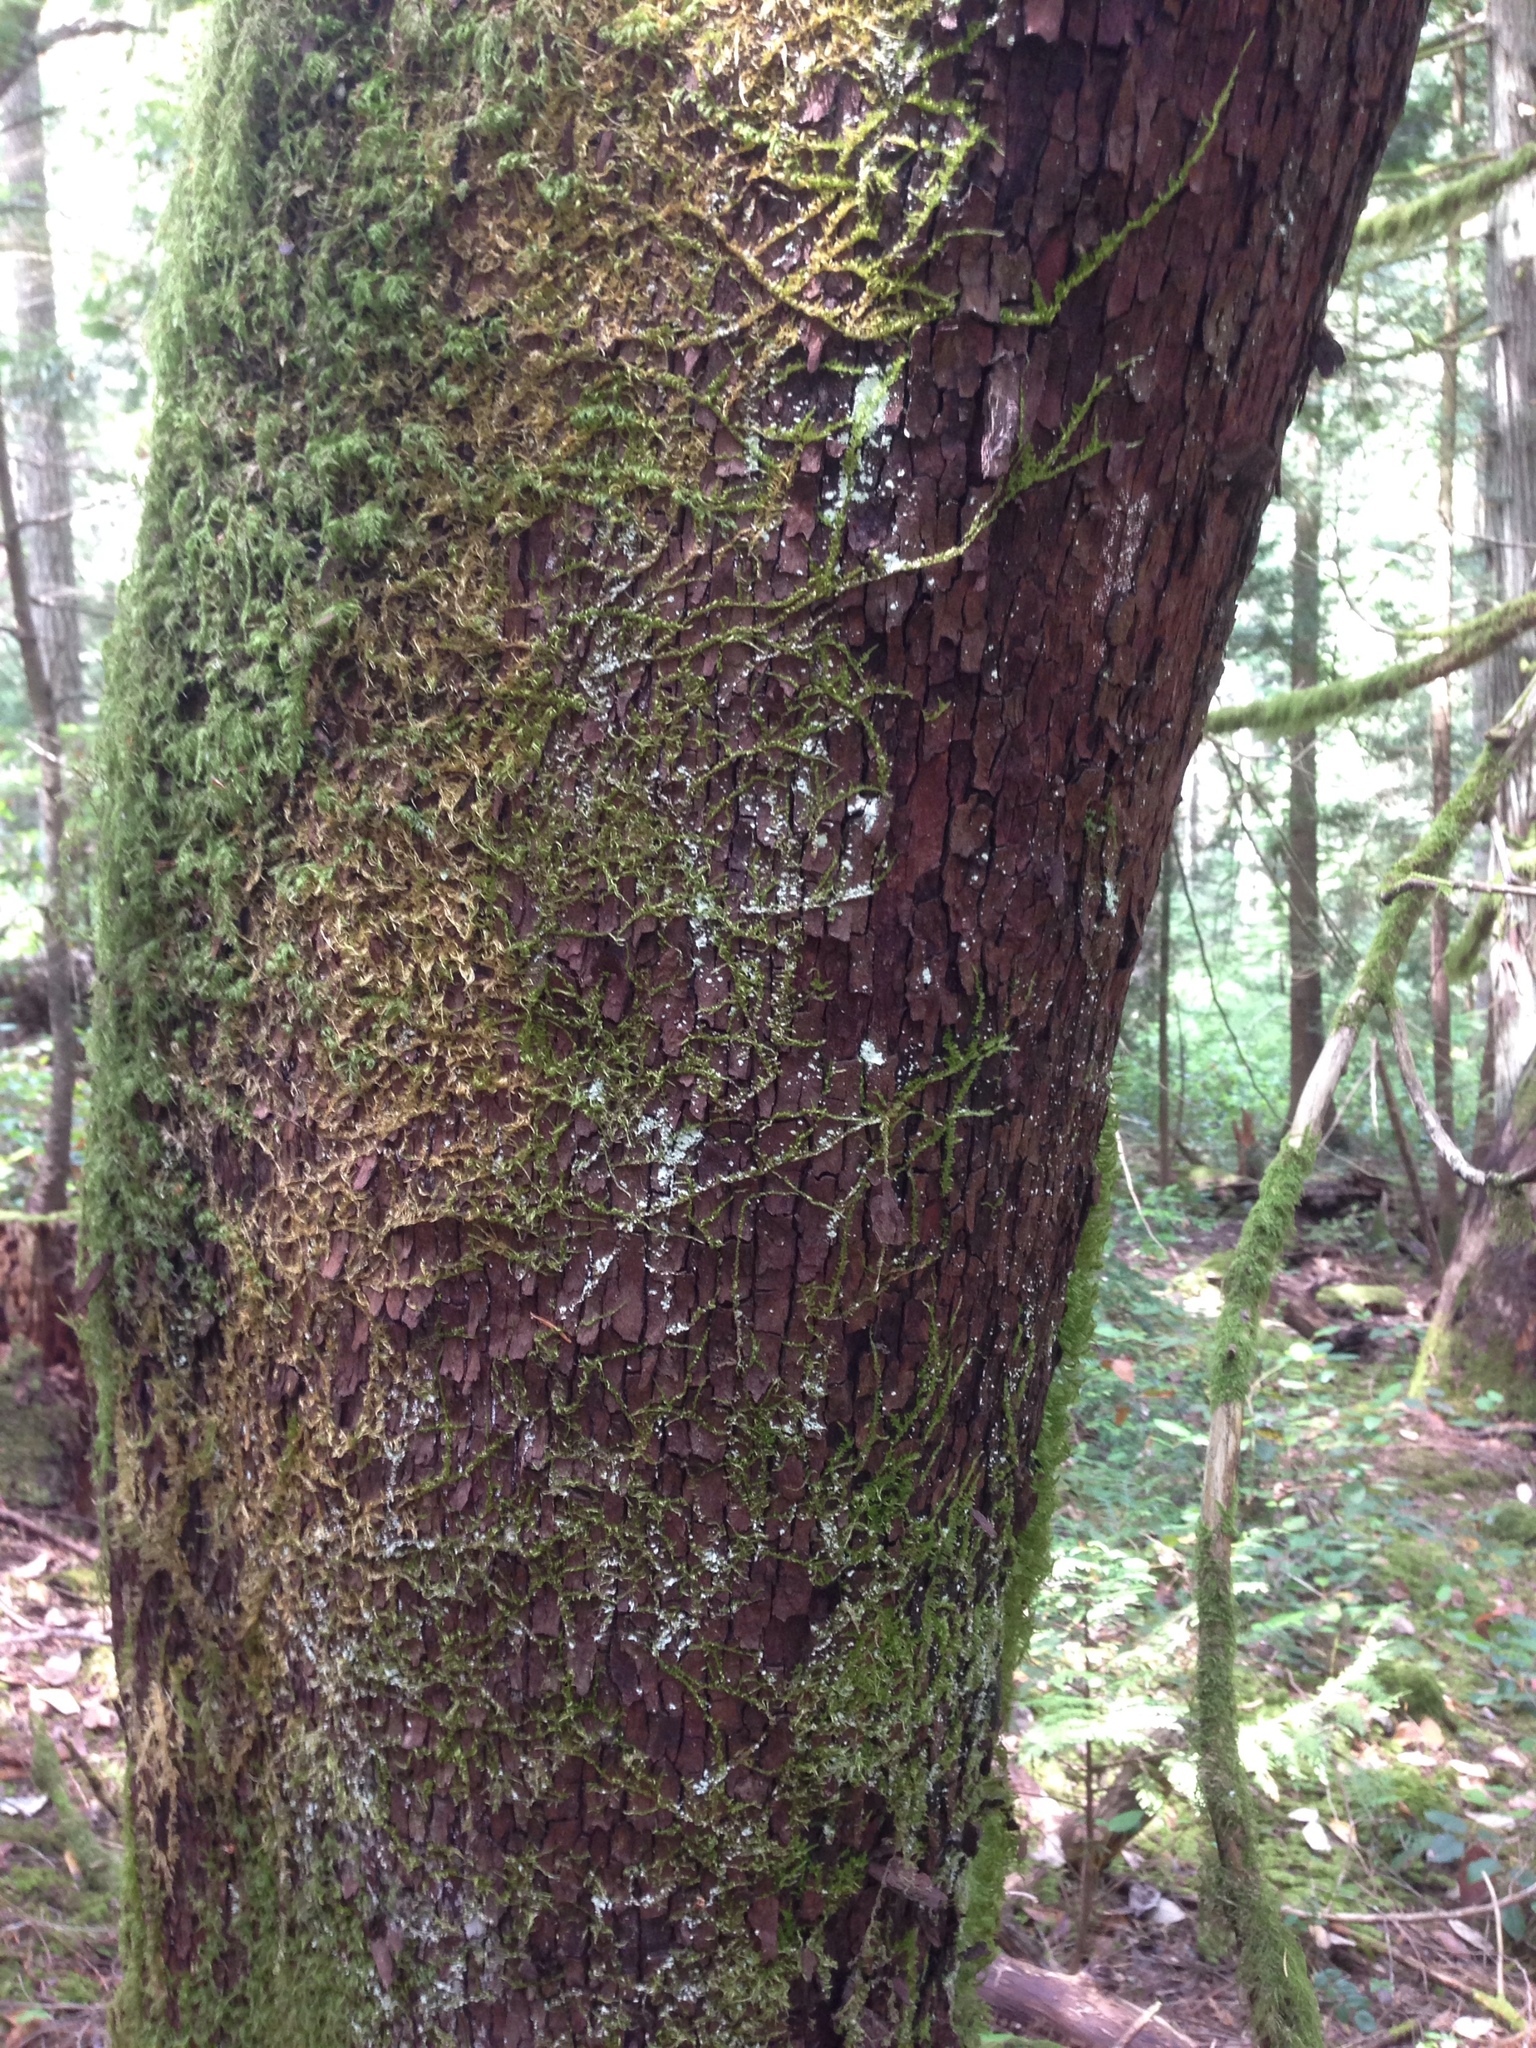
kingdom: Plantae
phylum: Tracheophyta
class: Magnoliopsida
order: Ericales
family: Ericaceae
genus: Arbutus
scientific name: Arbutus menziesii
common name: Pacific madrone
